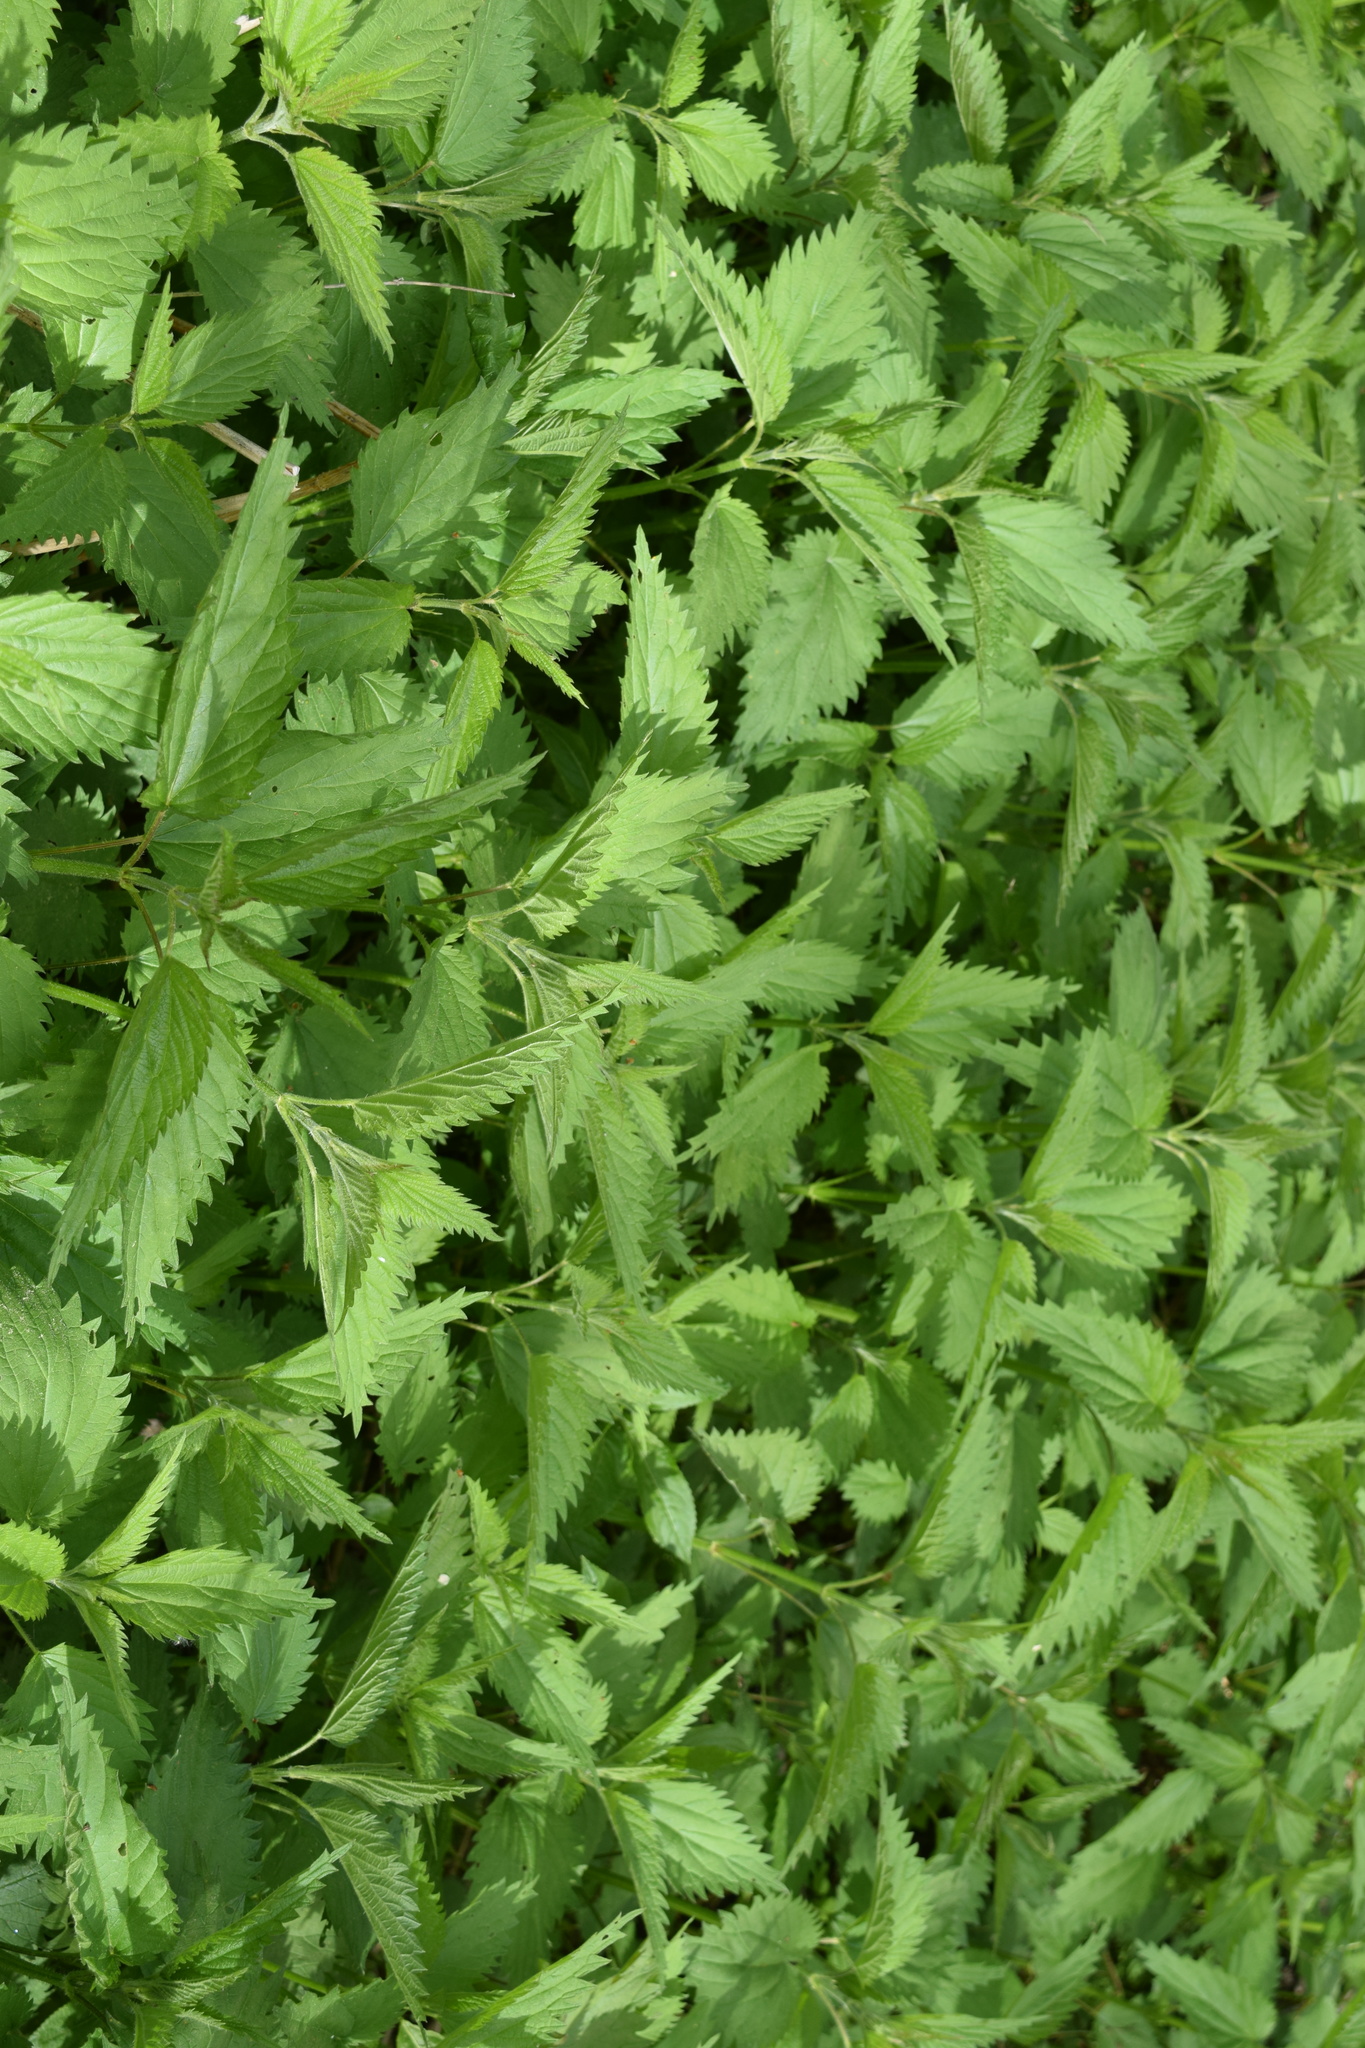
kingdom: Plantae
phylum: Tracheophyta
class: Magnoliopsida
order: Rosales
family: Urticaceae
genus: Urtica
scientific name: Urtica dioica
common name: Common nettle
